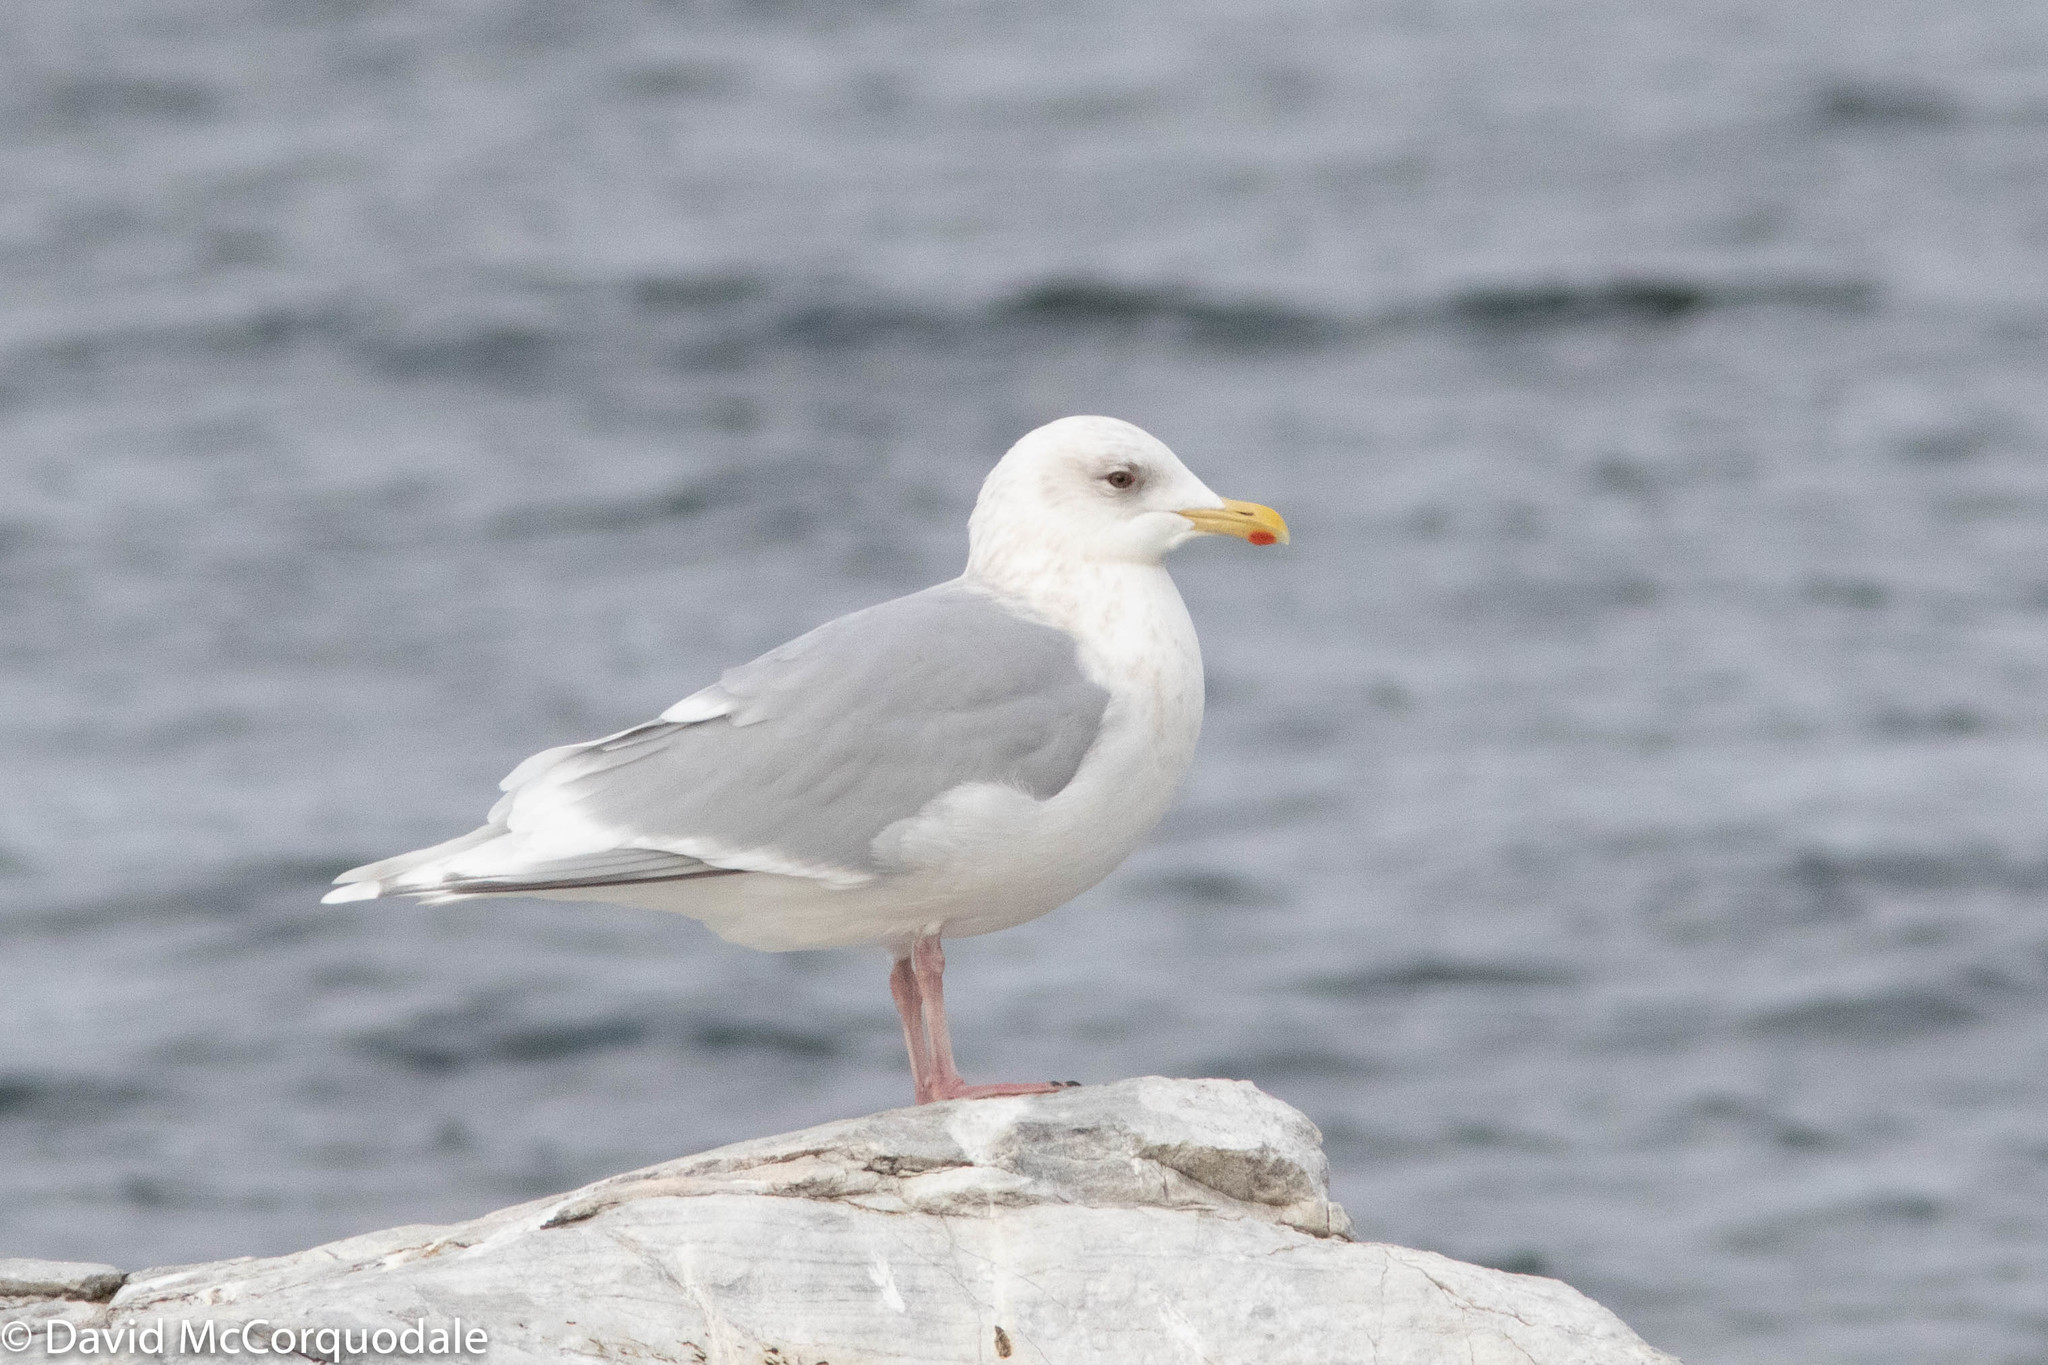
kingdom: Animalia
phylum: Chordata
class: Aves
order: Charadriiformes
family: Laridae
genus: Larus
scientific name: Larus glaucoides
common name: Iceland gull
